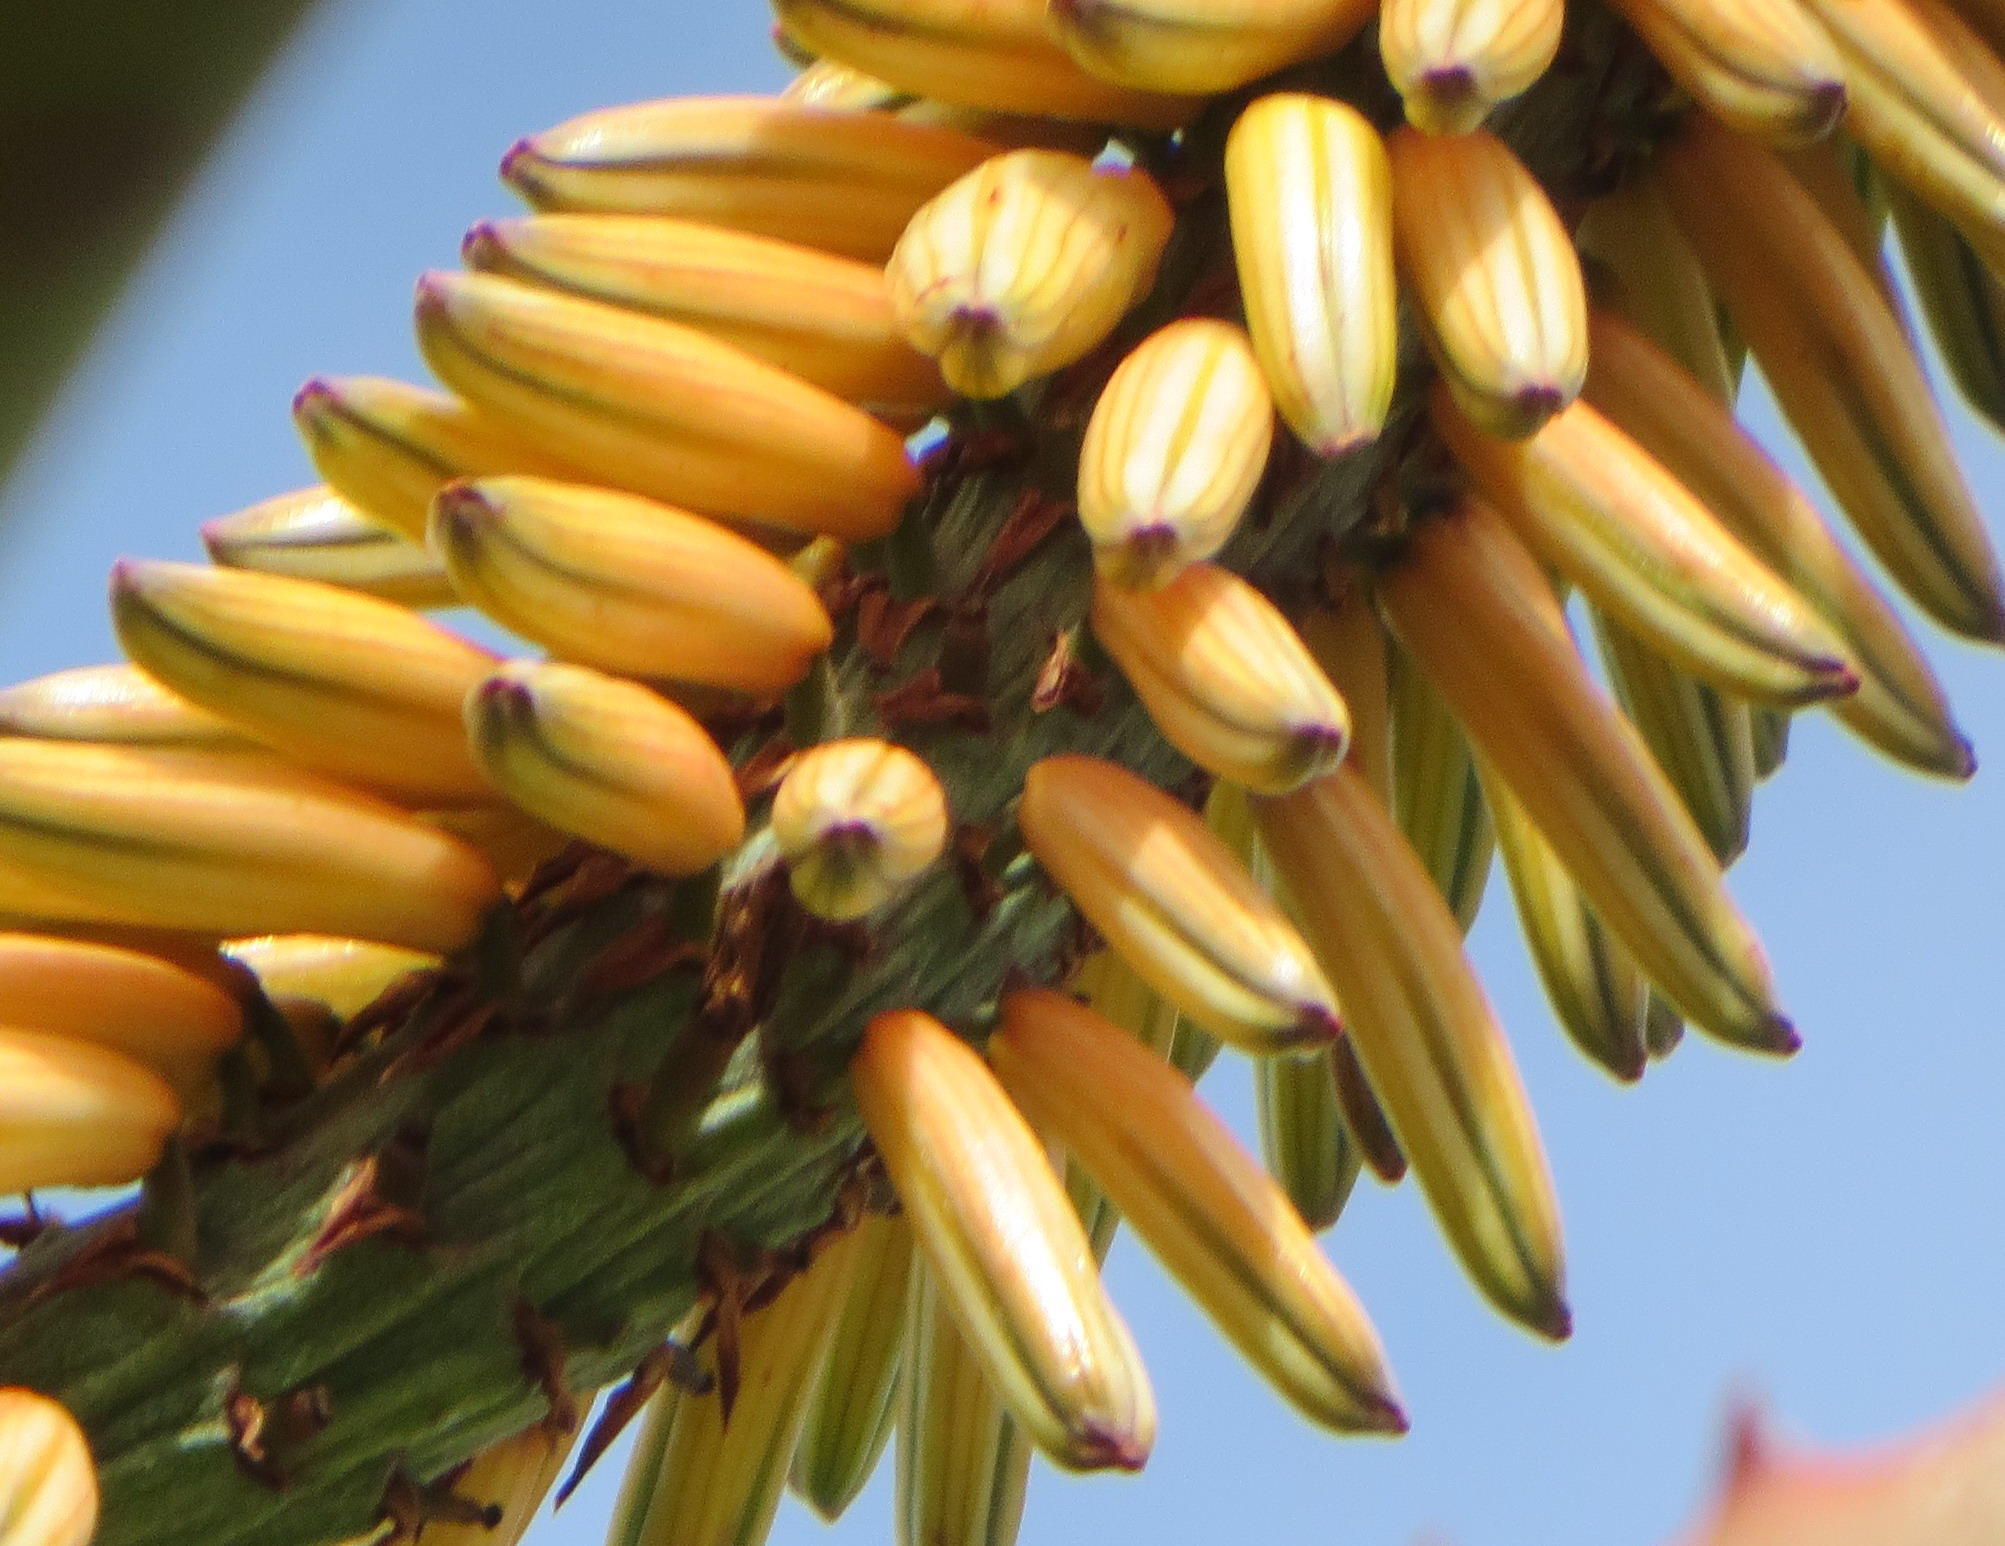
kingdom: Plantae
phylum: Tracheophyta
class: Liliopsida
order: Asparagales
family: Asphodelaceae
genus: Aloe
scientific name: Aloe ferox
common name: Bitter aloe
